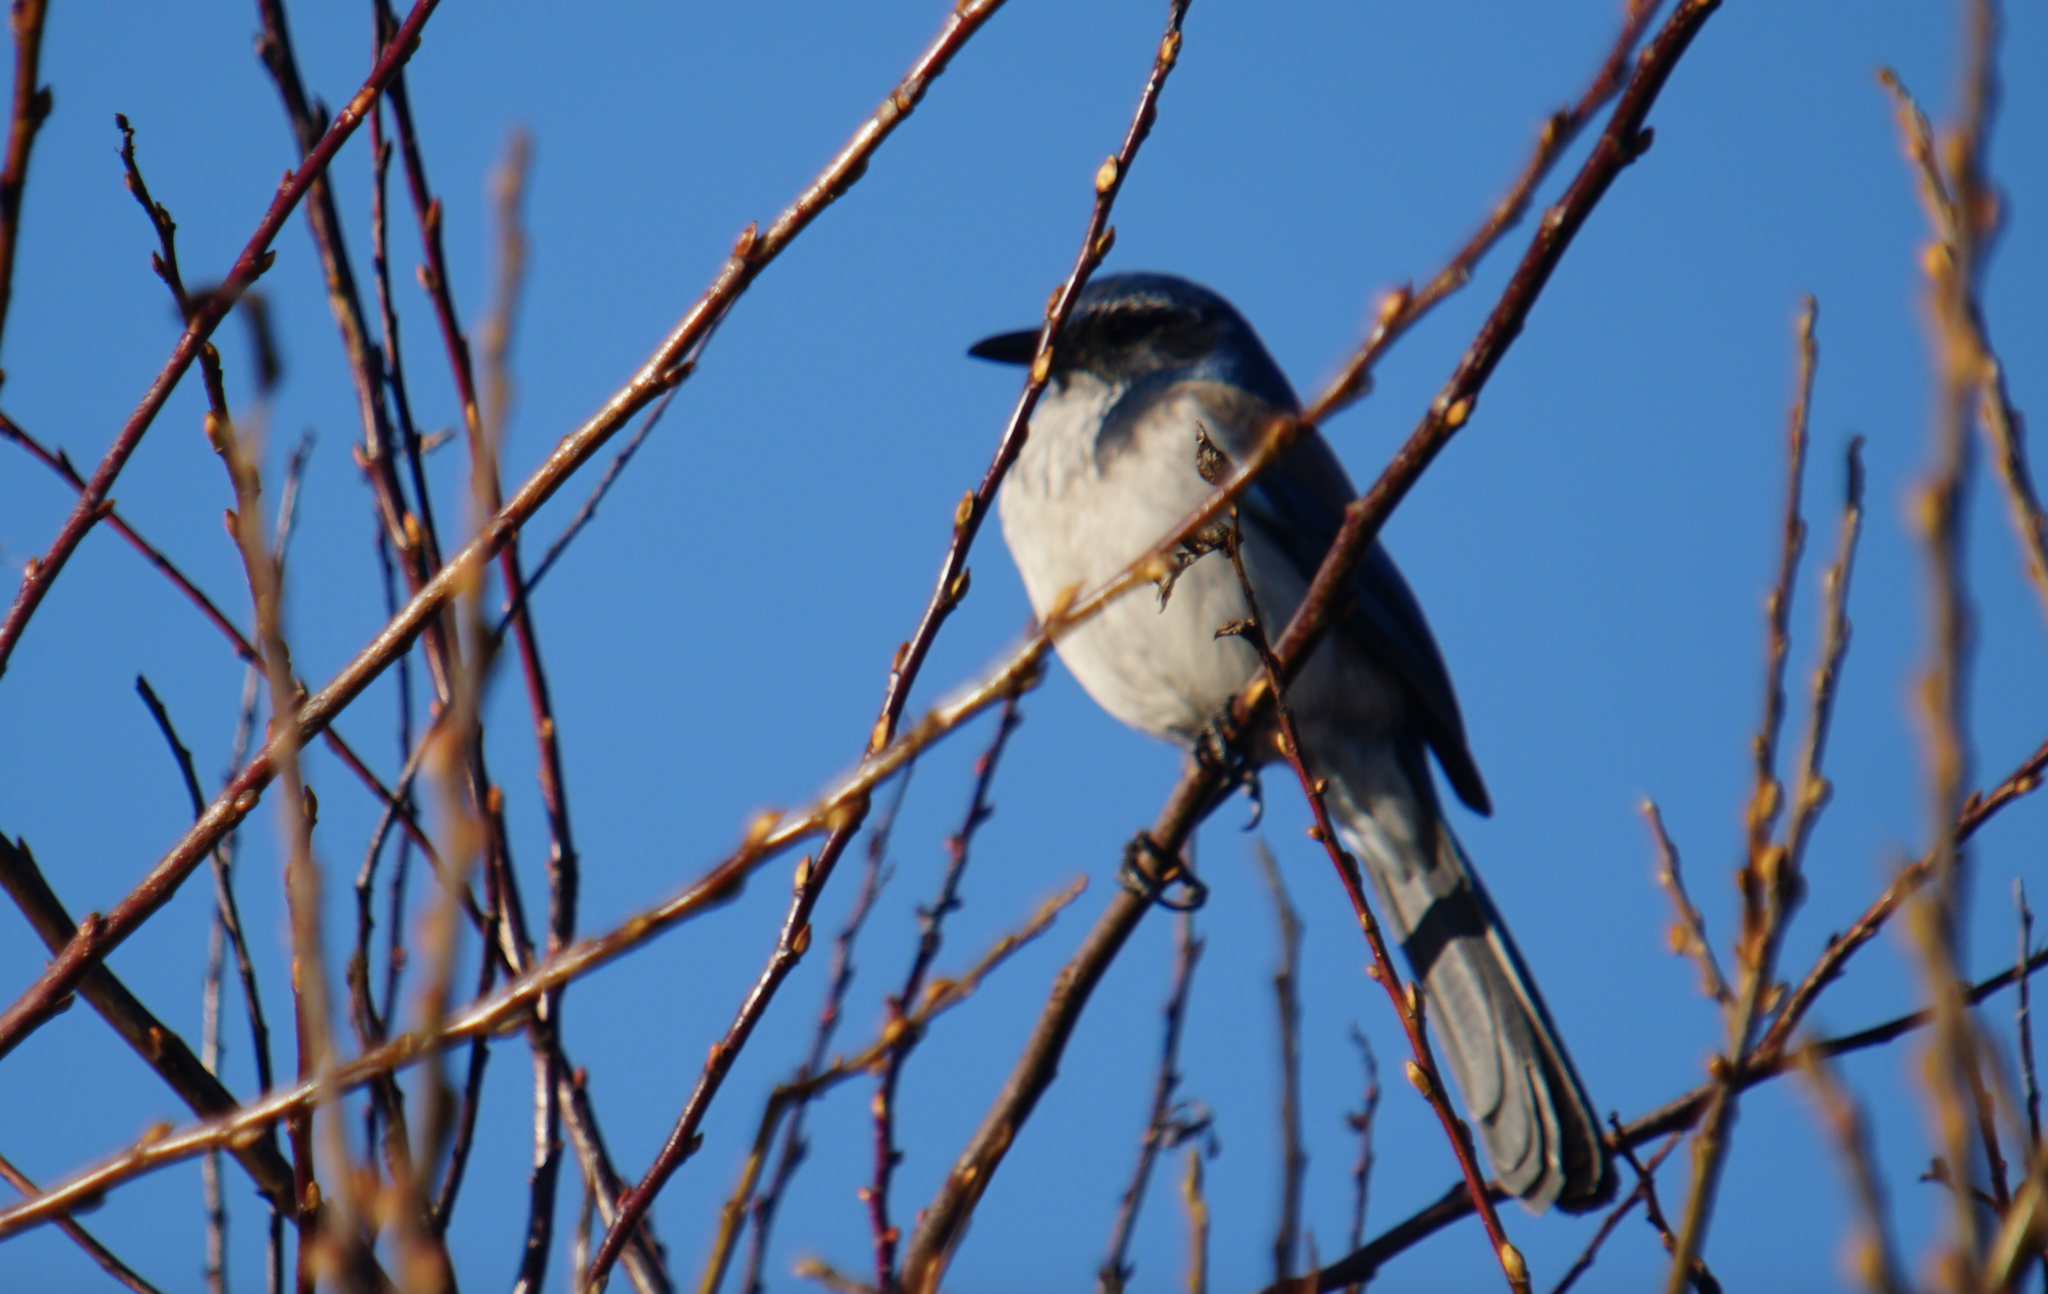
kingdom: Animalia
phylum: Chordata
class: Aves
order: Passeriformes
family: Corvidae
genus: Aphelocoma
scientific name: Aphelocoma californica
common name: California scrub-jay
